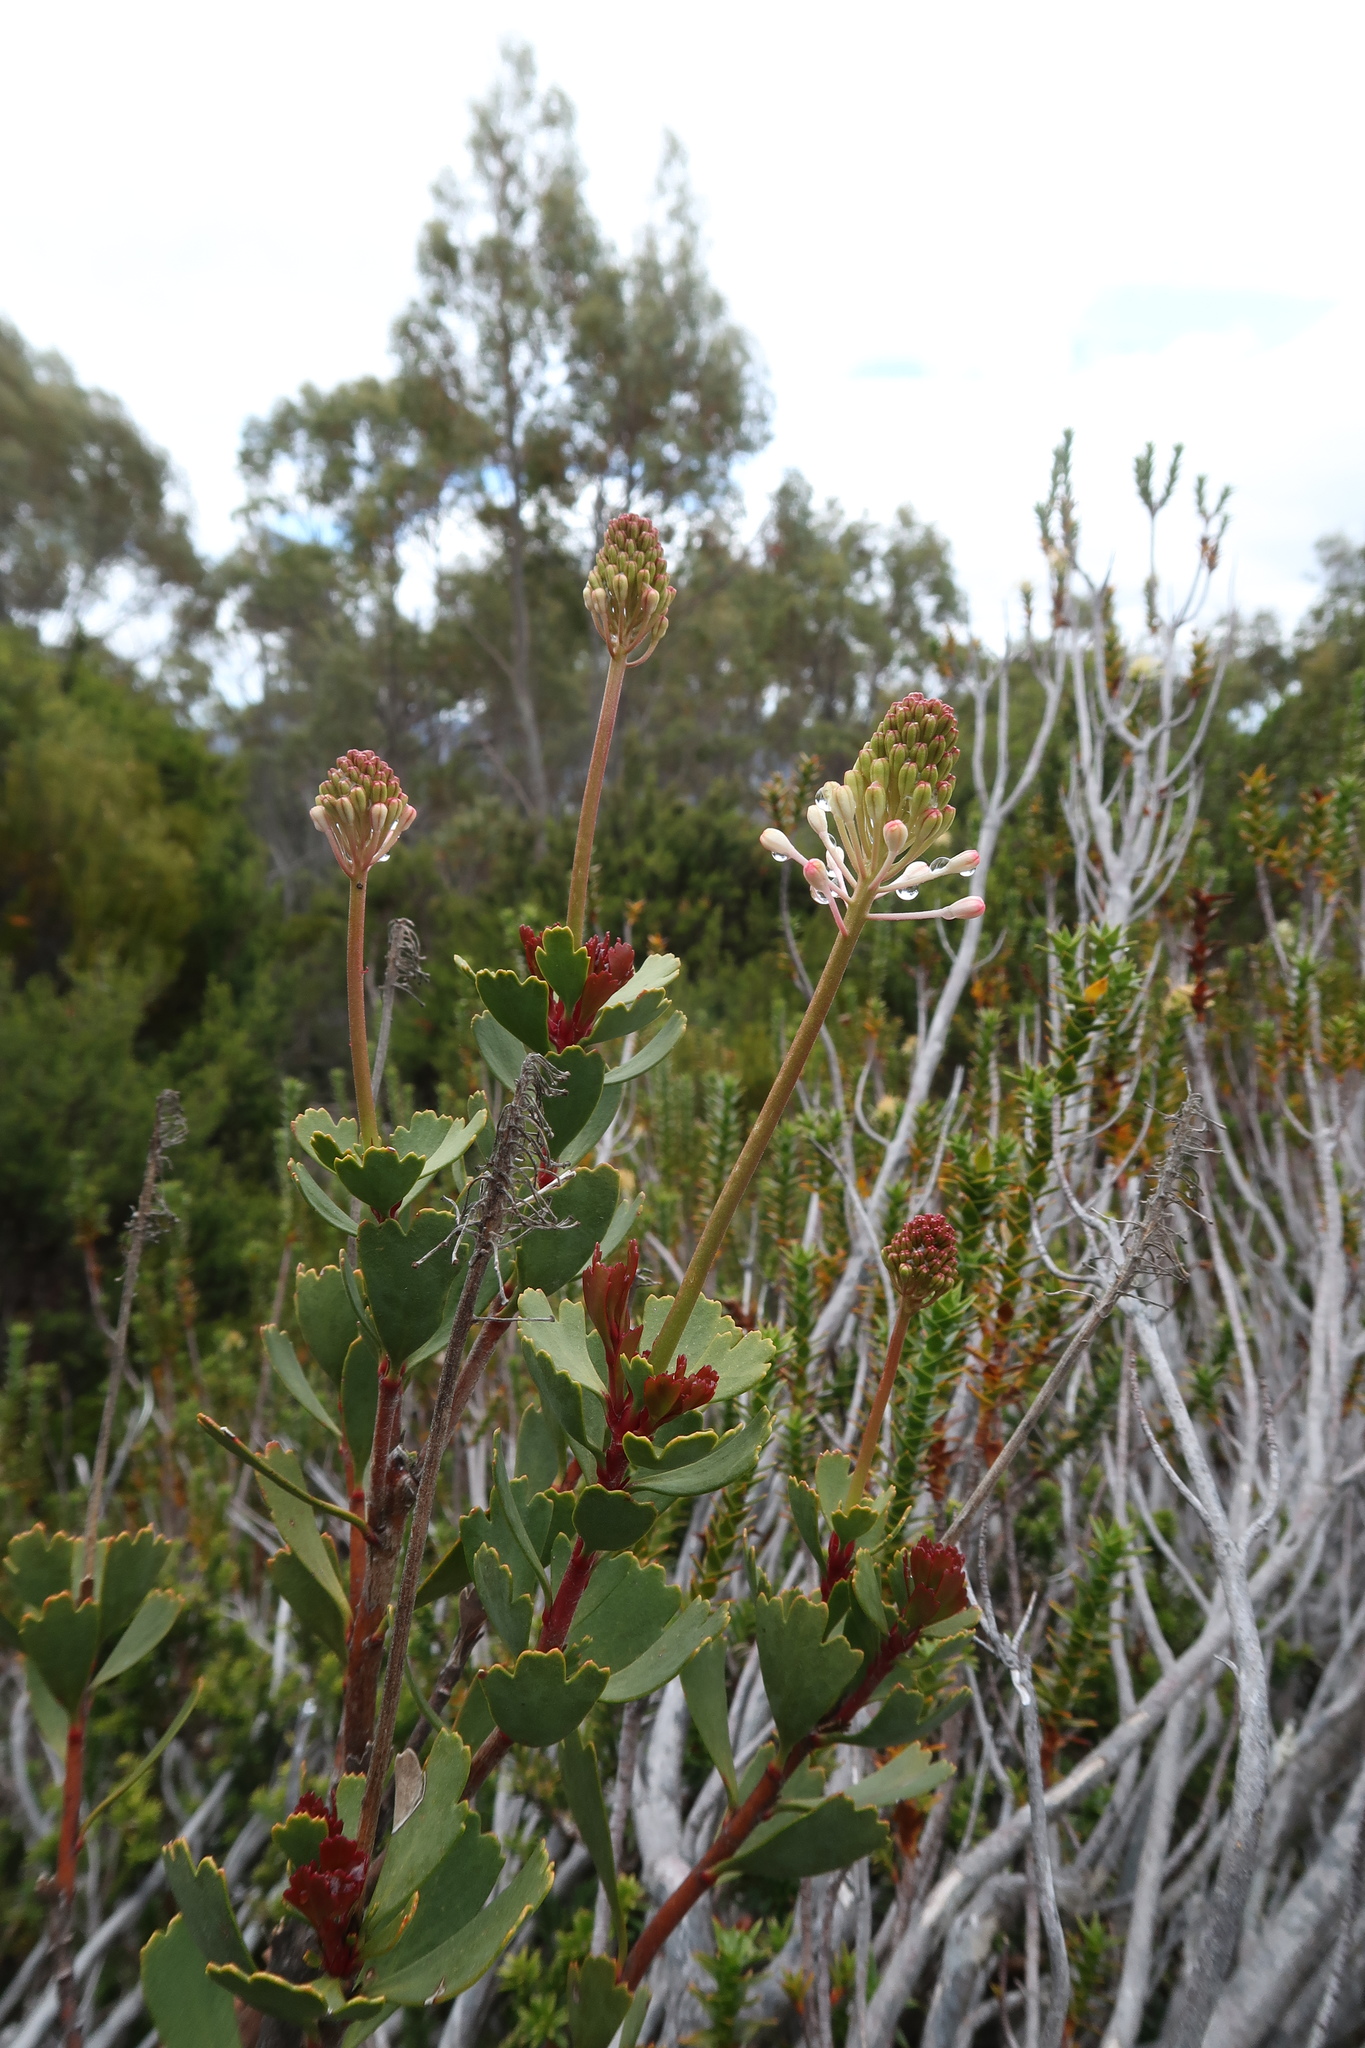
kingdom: Plantae
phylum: Tracheophyta
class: Magnoliopsida
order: Proteales
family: Proteaceae
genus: Bellendena
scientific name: Bellendena montana
